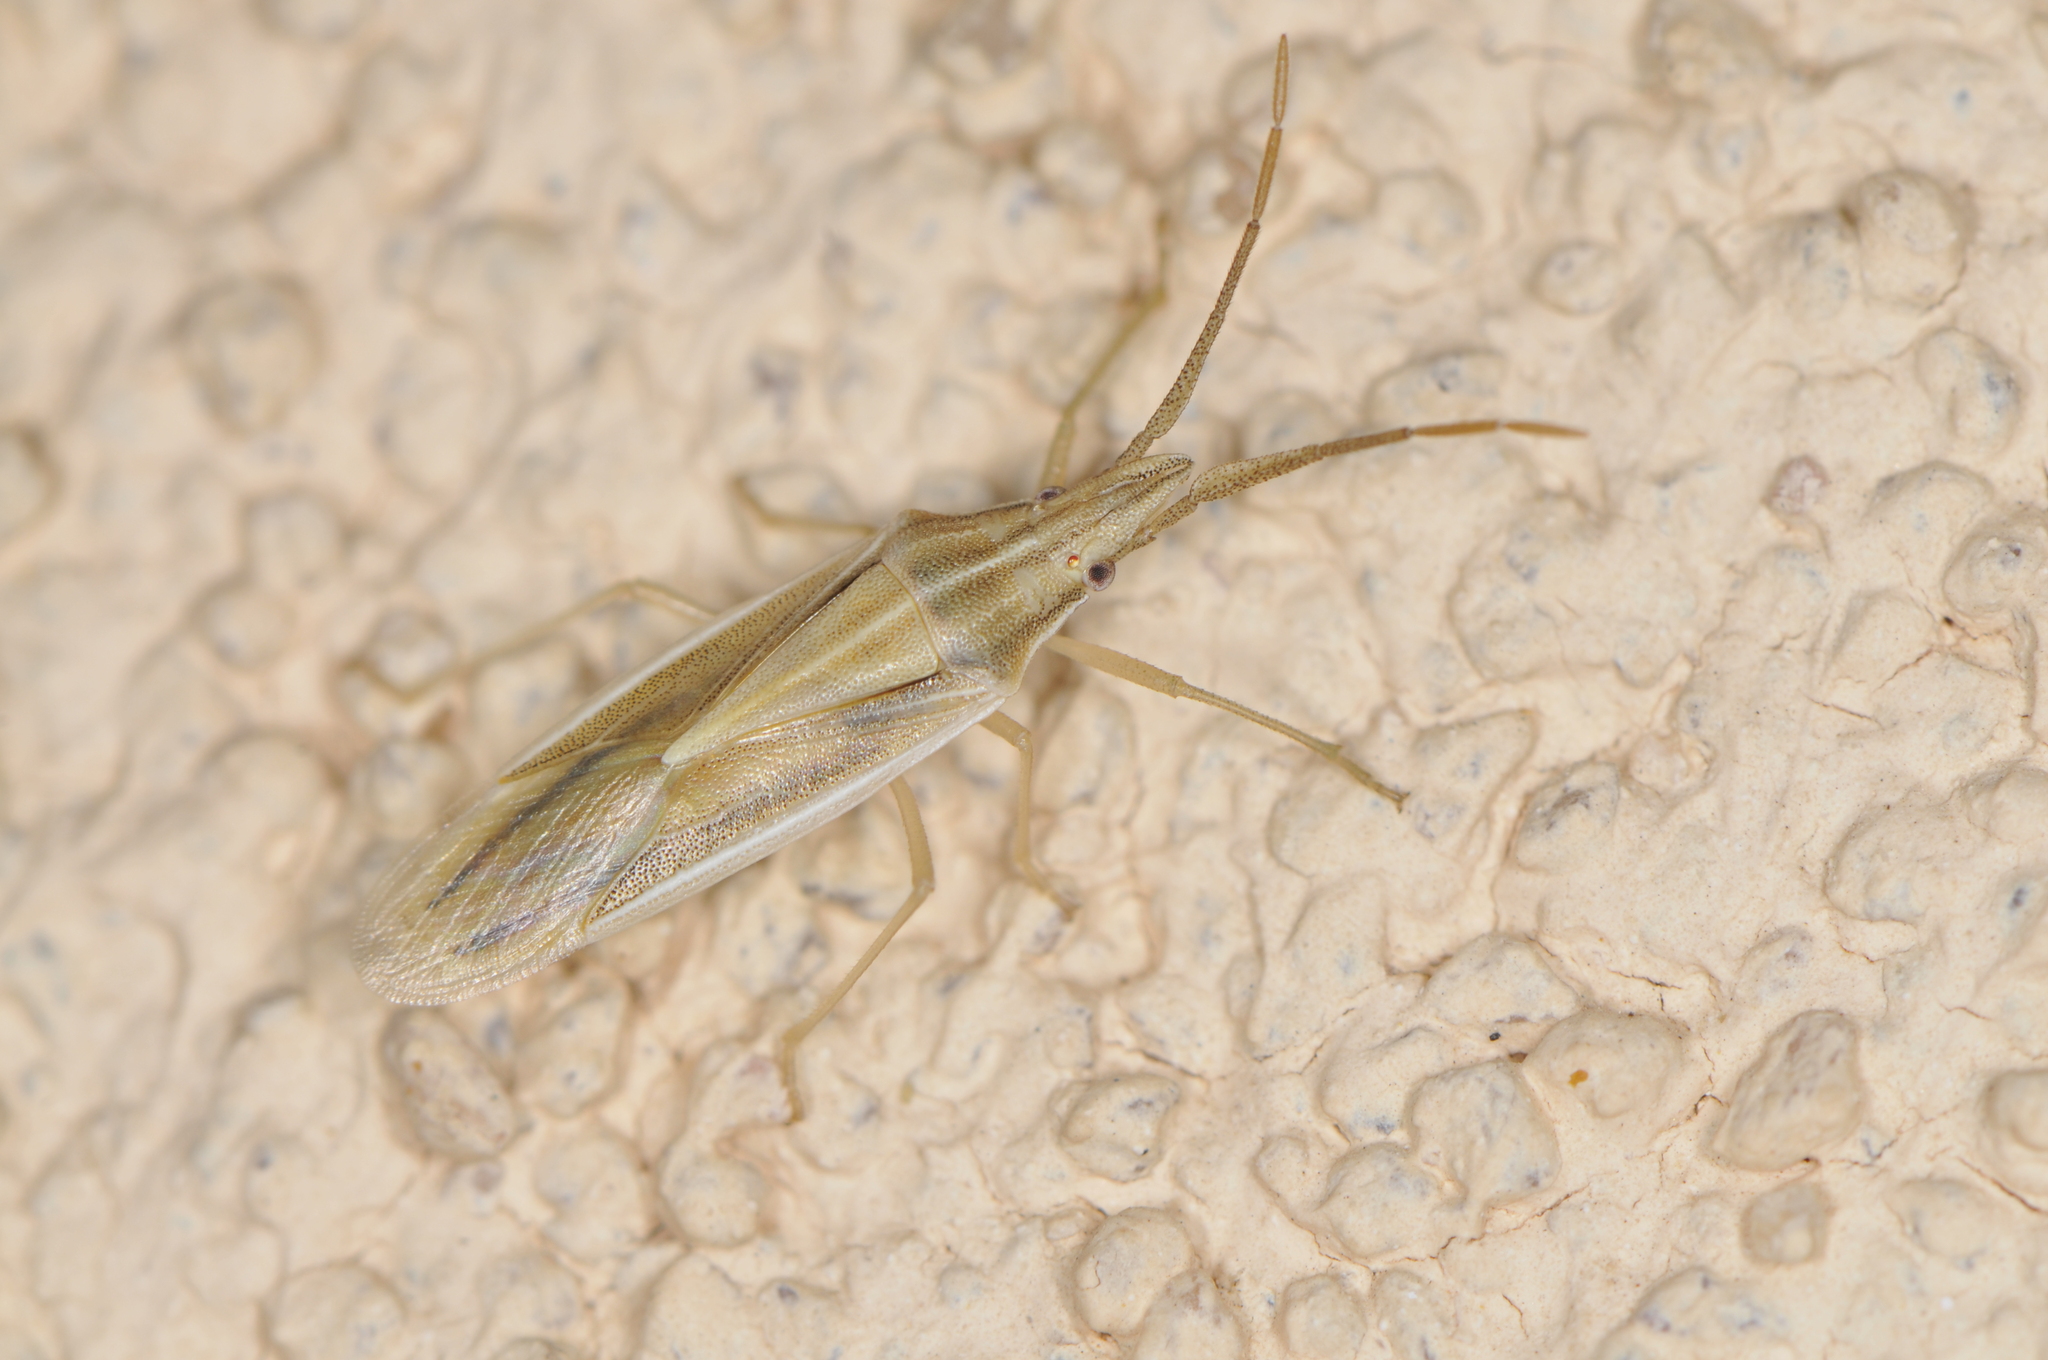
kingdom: Animalia
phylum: Arthropoda
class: Insecta
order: Hemiptera
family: Pentatomidae
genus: Mecidea
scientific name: Mecidea
